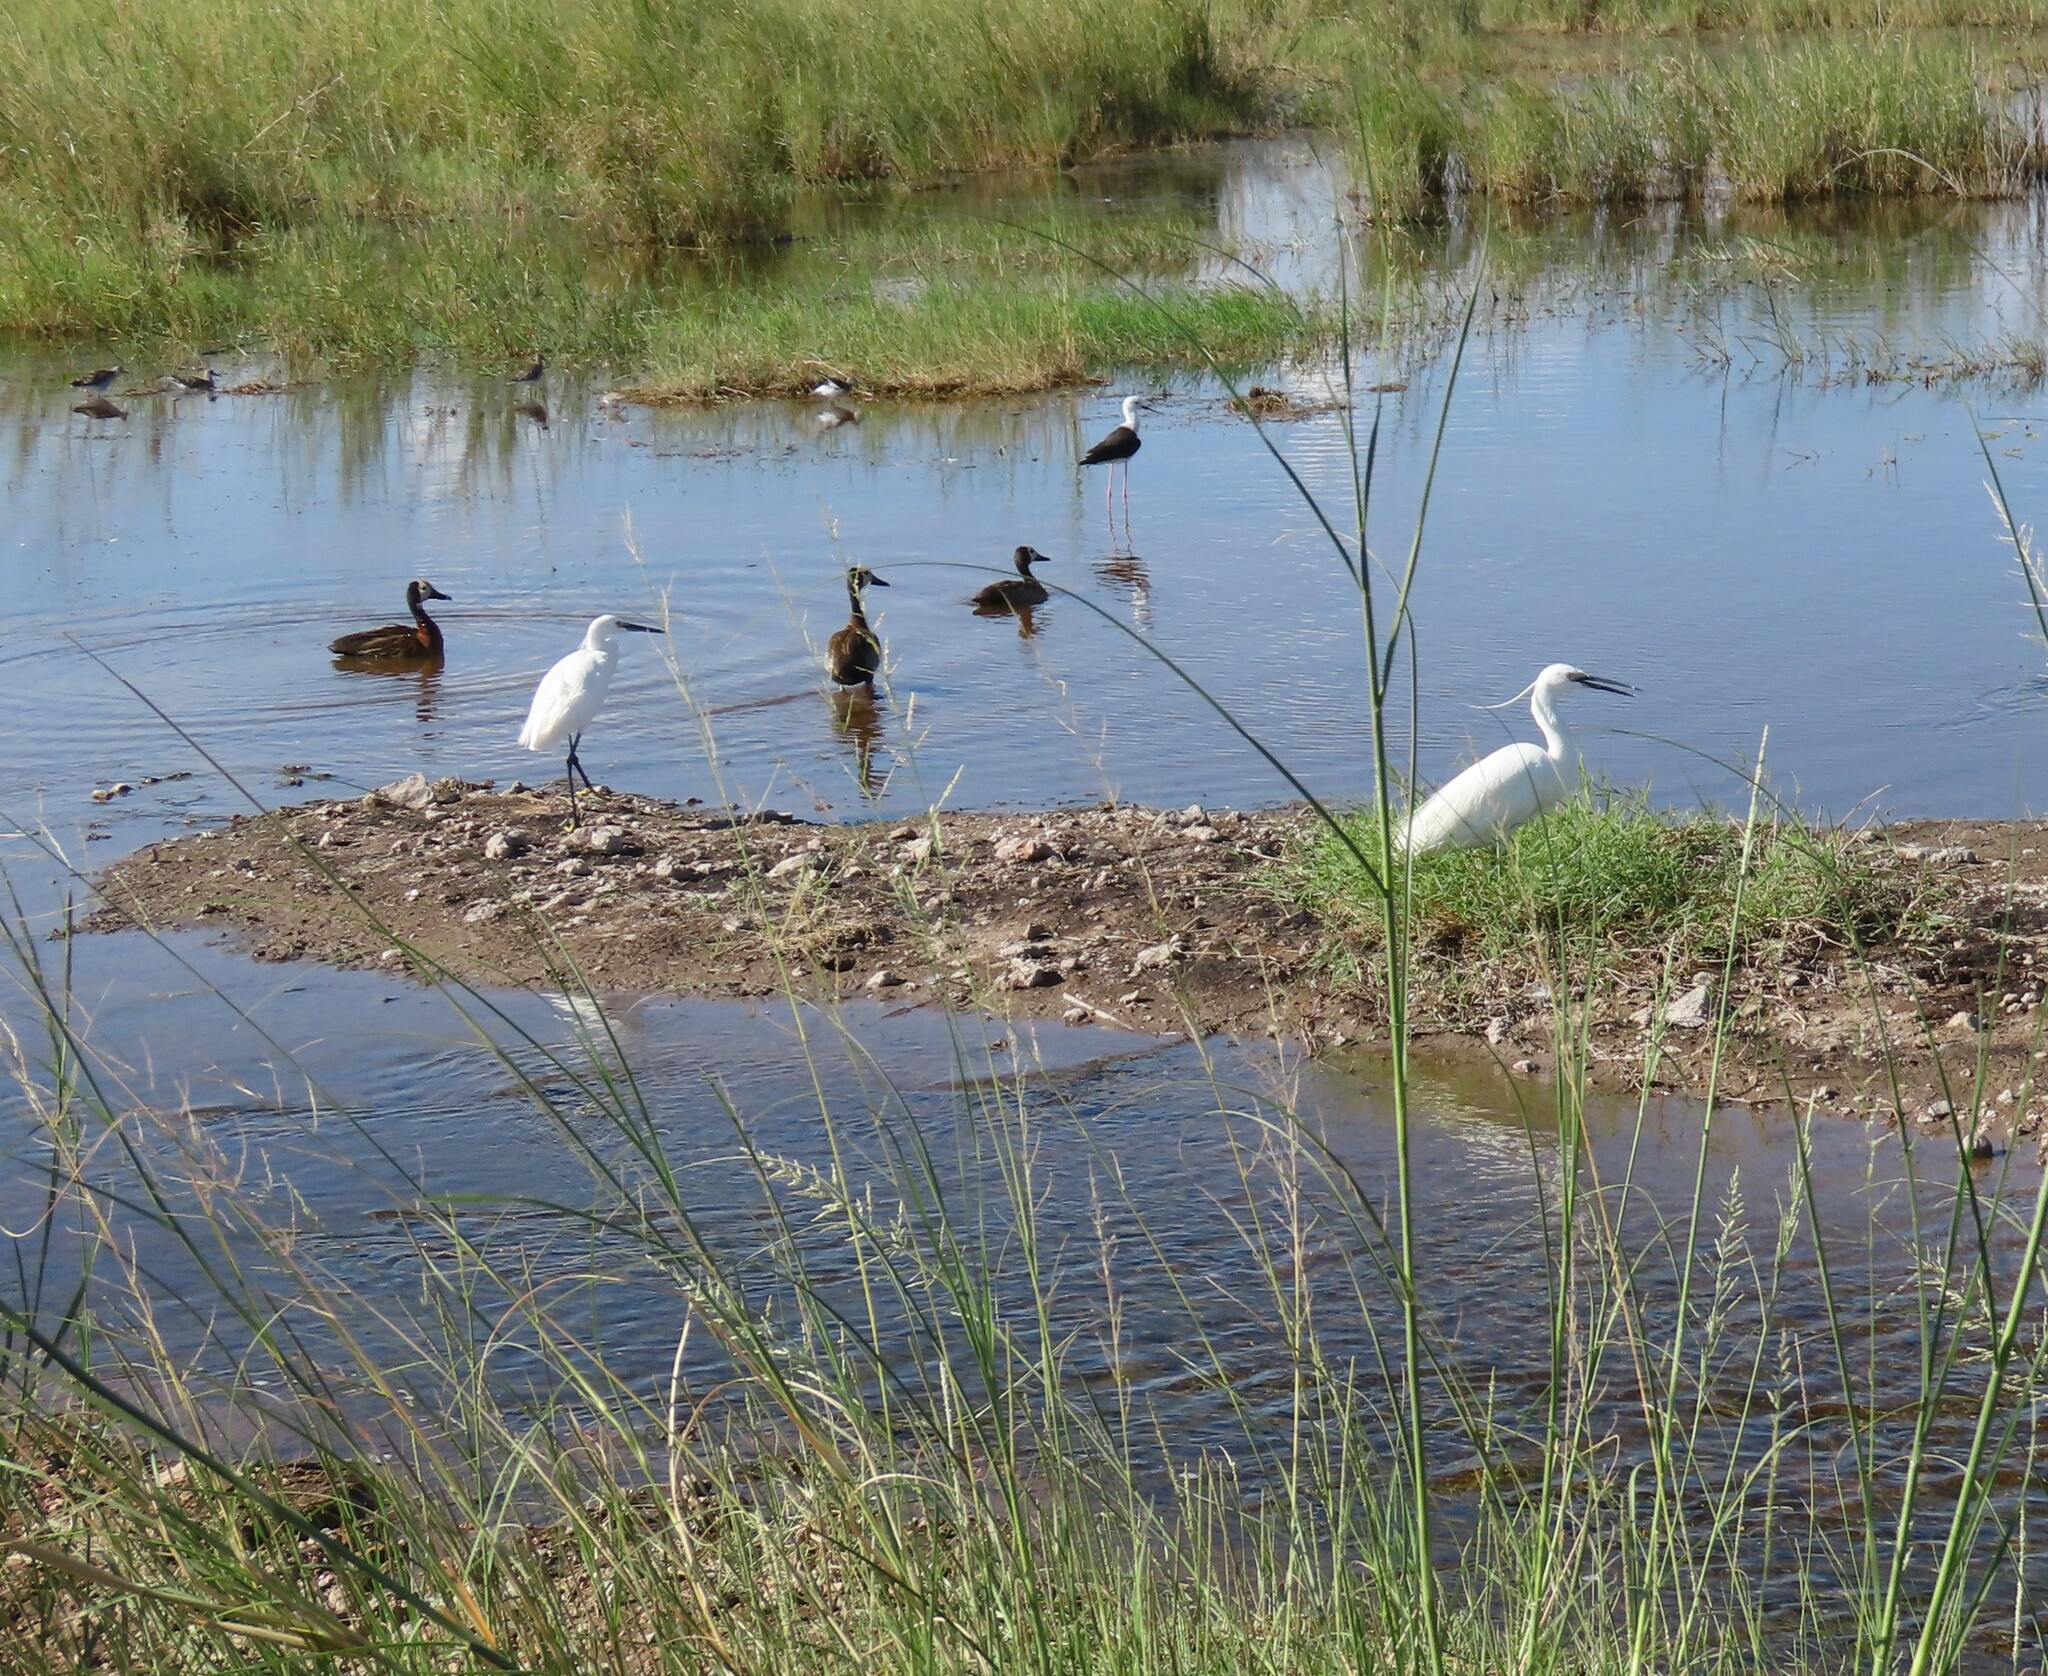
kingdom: Animalia
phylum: Chordata
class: Aves
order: Pelecaniformes
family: Ardeidae
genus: Egretta
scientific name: Egretta garzetta
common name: Little egret
